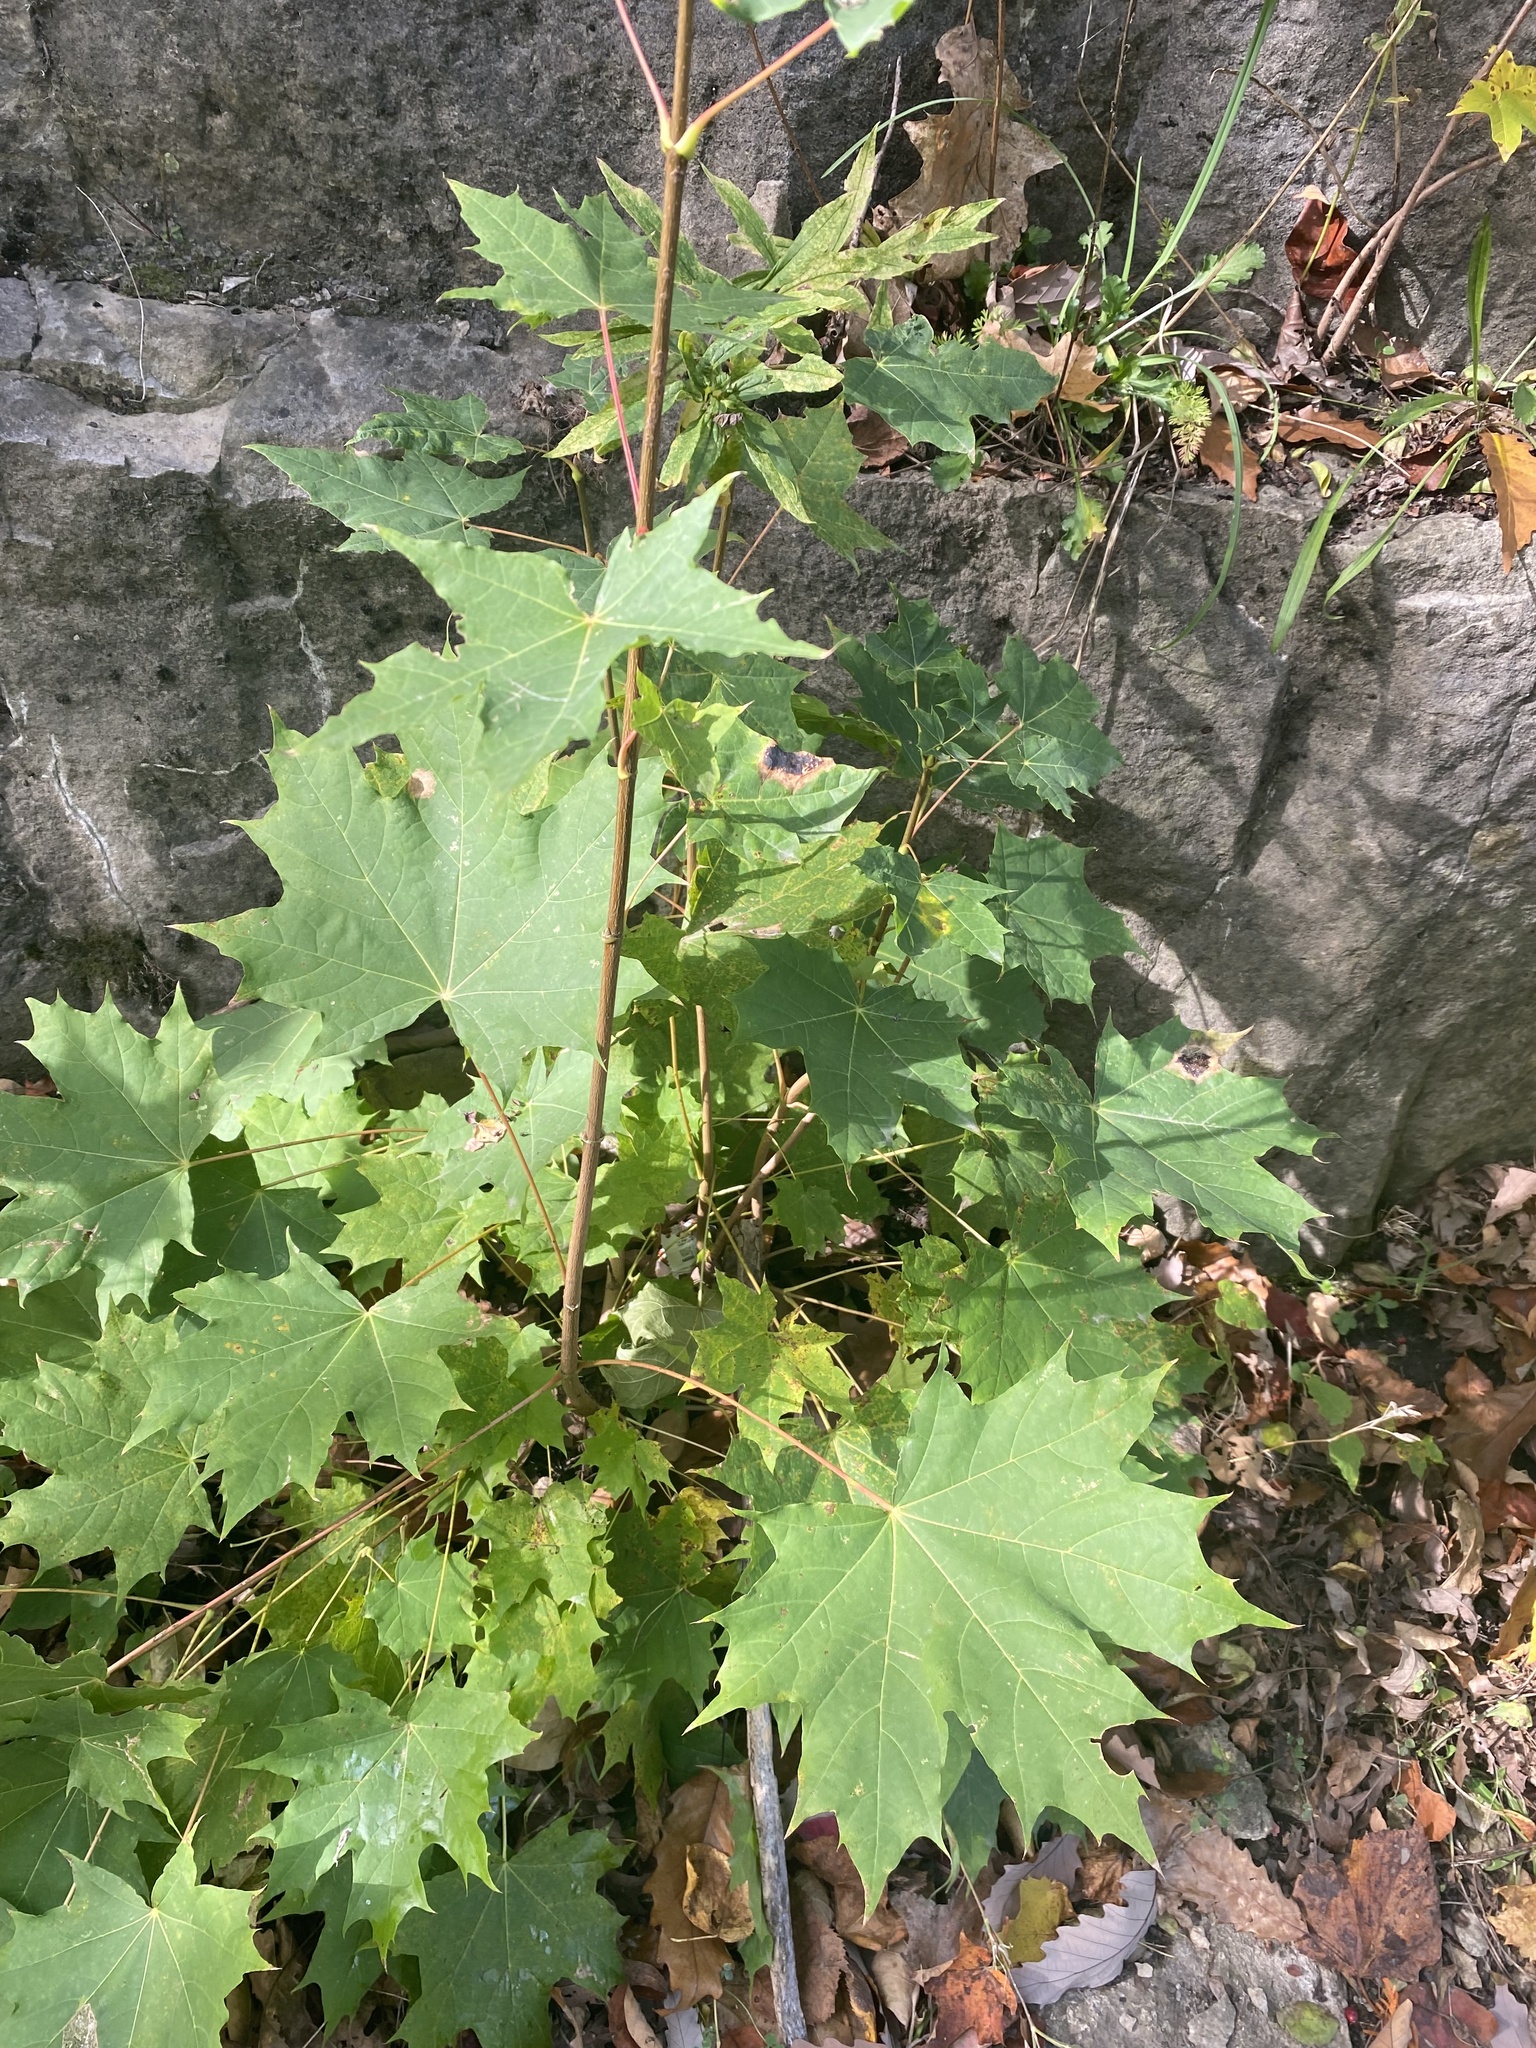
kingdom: Plantae
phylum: Tracheophyta
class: Magnoliopsida
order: Sapindales
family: Sapindaceae
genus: Acer
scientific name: Acer platanoides
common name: Norway maple
